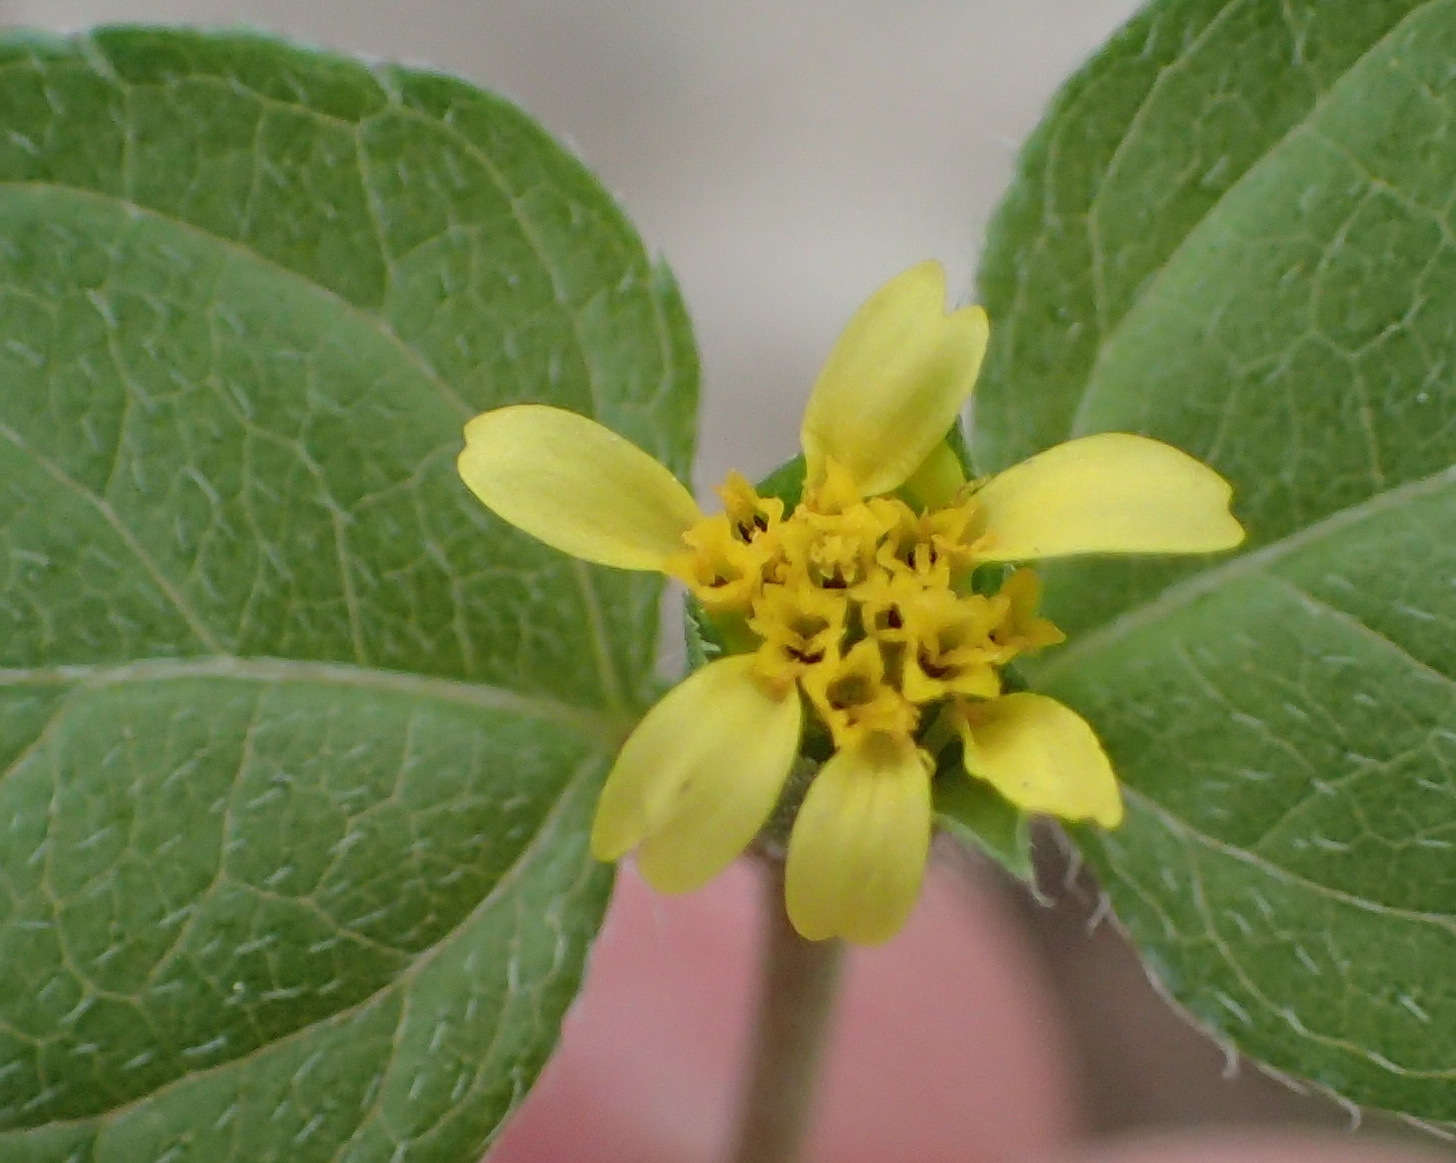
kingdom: Plantae
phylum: Tracheophyta
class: Magnoliopsida
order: Asterales
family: Asteraceae
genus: Calyptocarpus
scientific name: Calyptocarpus vialis
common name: Straggler daisy
